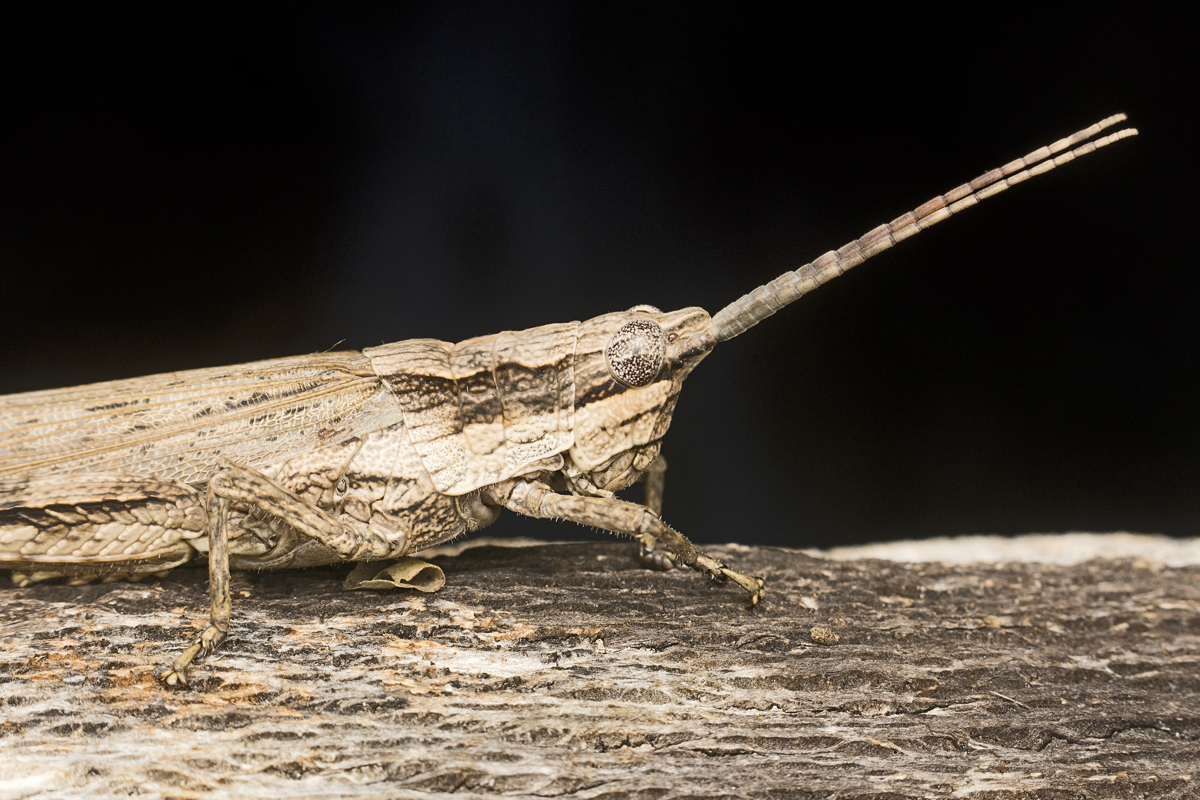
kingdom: Animalia
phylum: Arthropoda
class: Insecta
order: Orthoptera
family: Acrididae
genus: Coryphistes
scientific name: Coryphistes ruricola
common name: Bark-mimicking grasshopper
